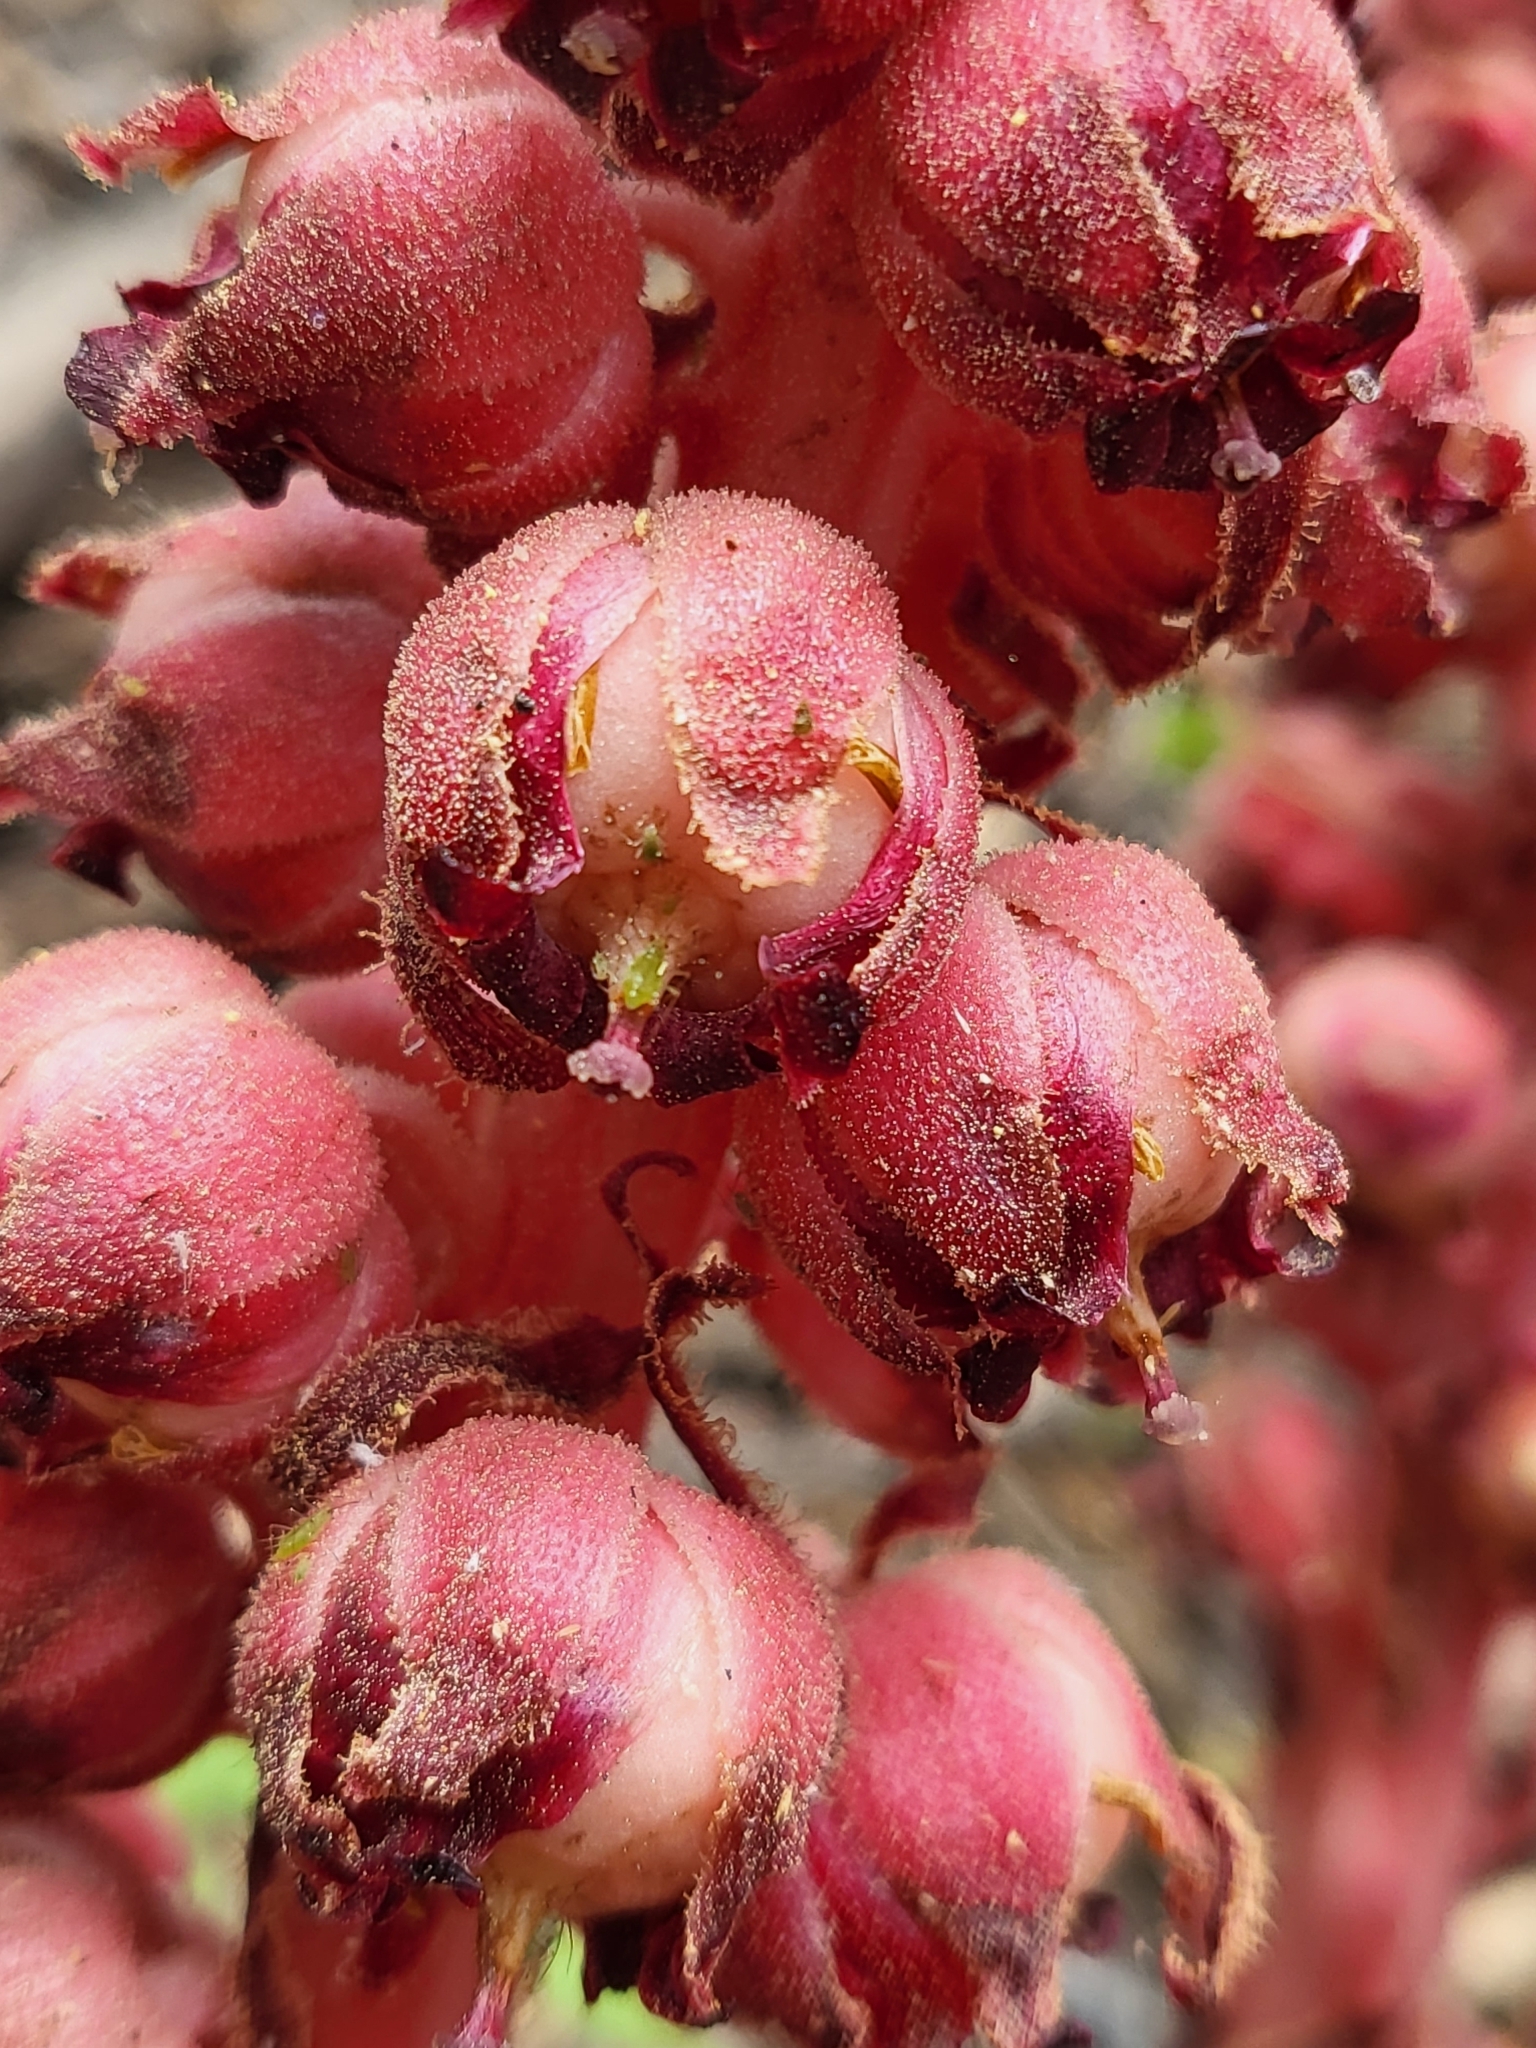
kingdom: Plantae
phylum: Tracheophyta
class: Magnoliopsida
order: Ericales
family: Ericaceae
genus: Sarcodes
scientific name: Sarcodes sanguinea
